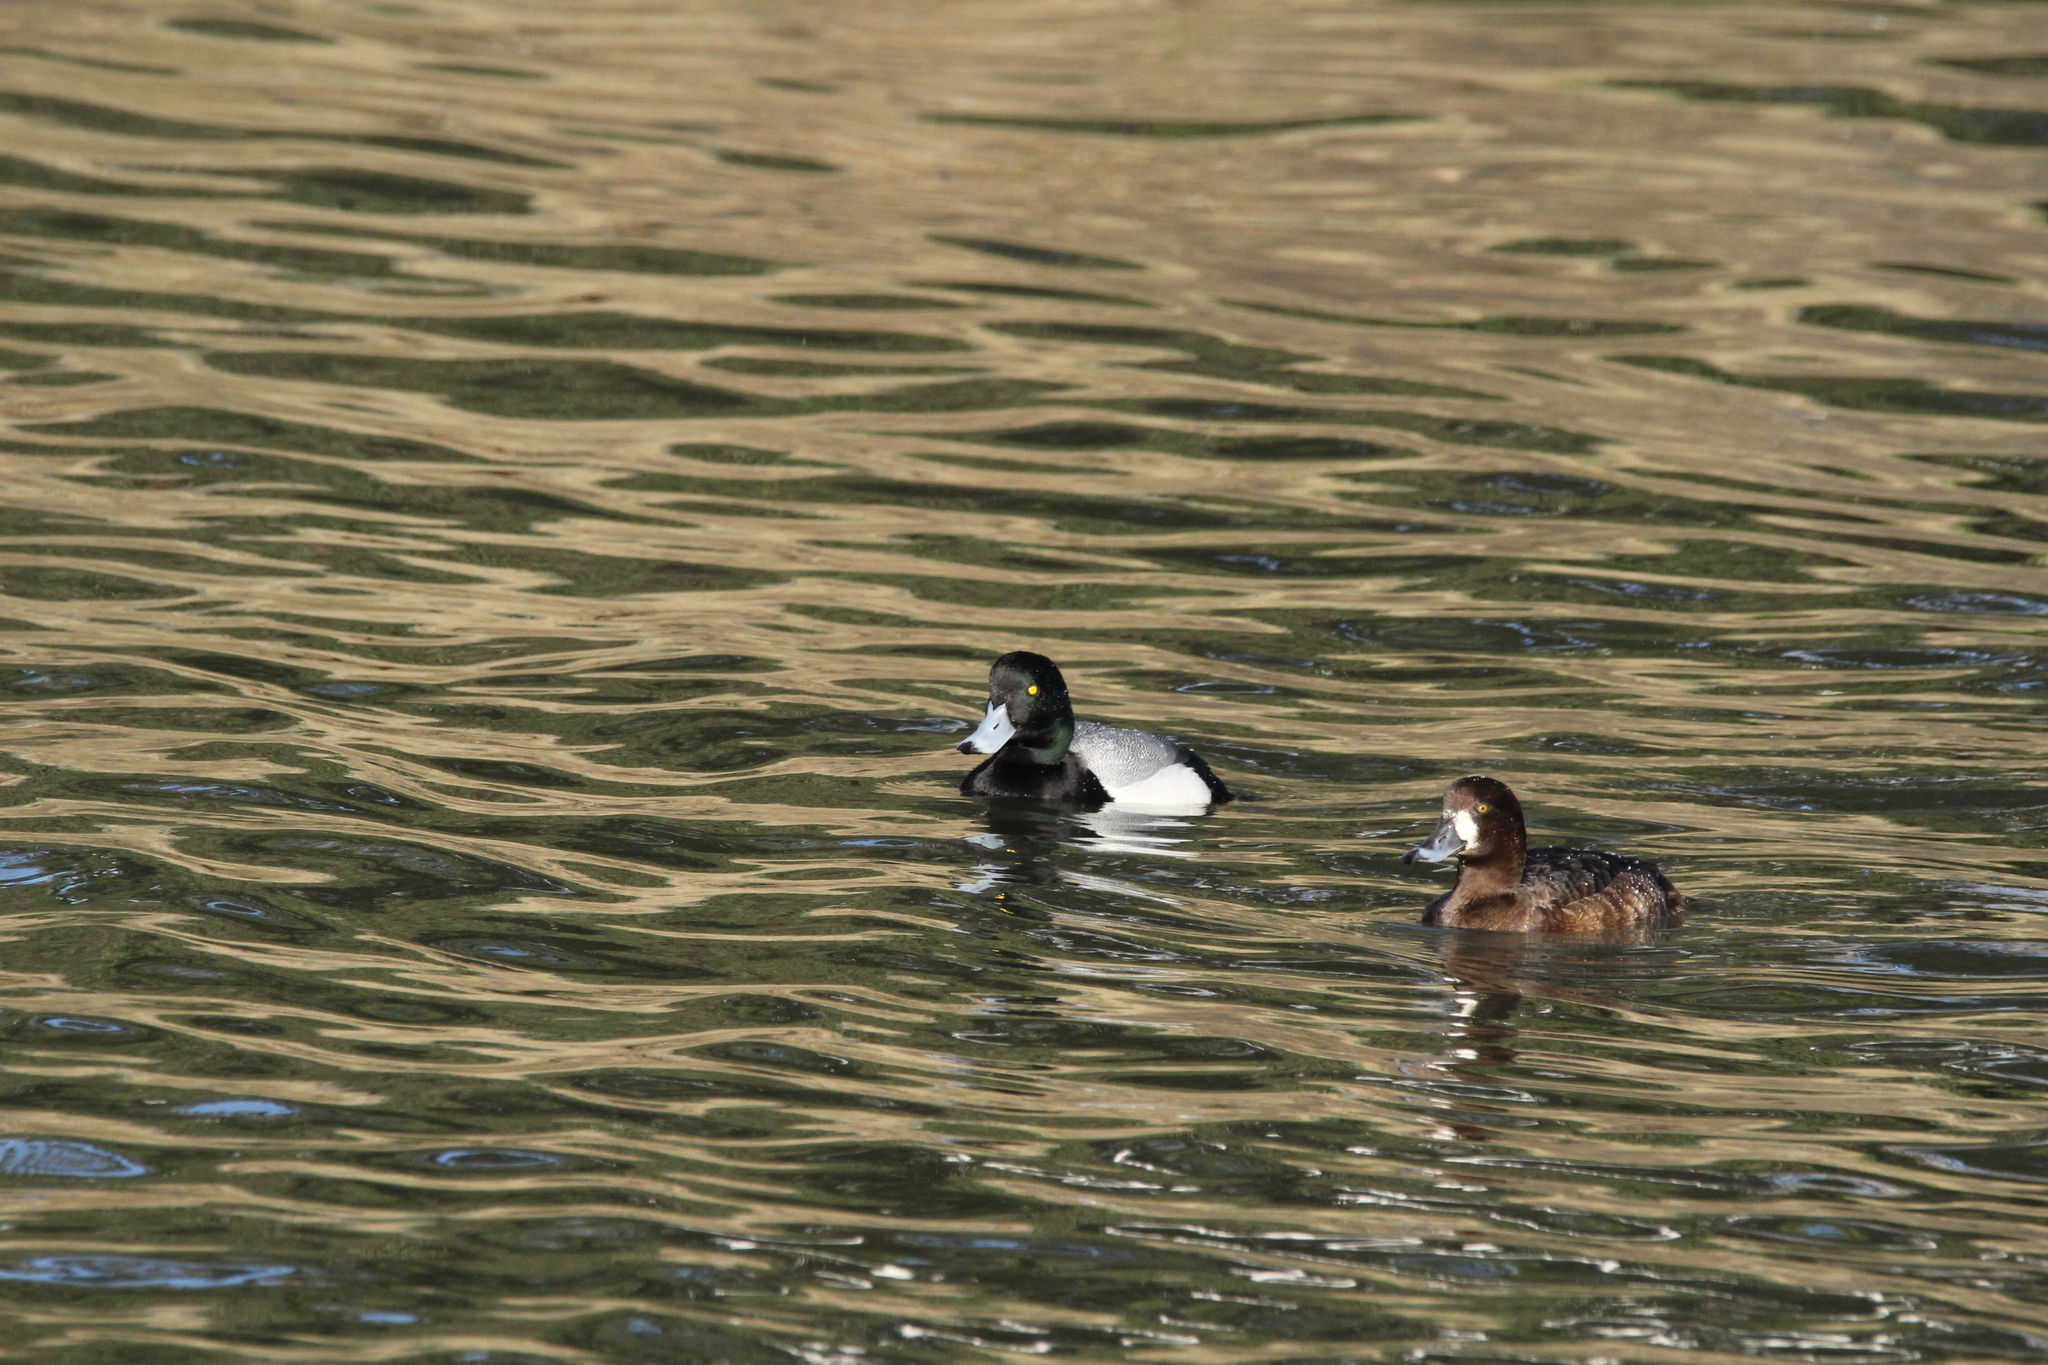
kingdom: Animalia
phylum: Chordata
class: Aves
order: Anseriformes
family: Anatidae
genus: Aythya
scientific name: Aythya marila
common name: Greater scaup
